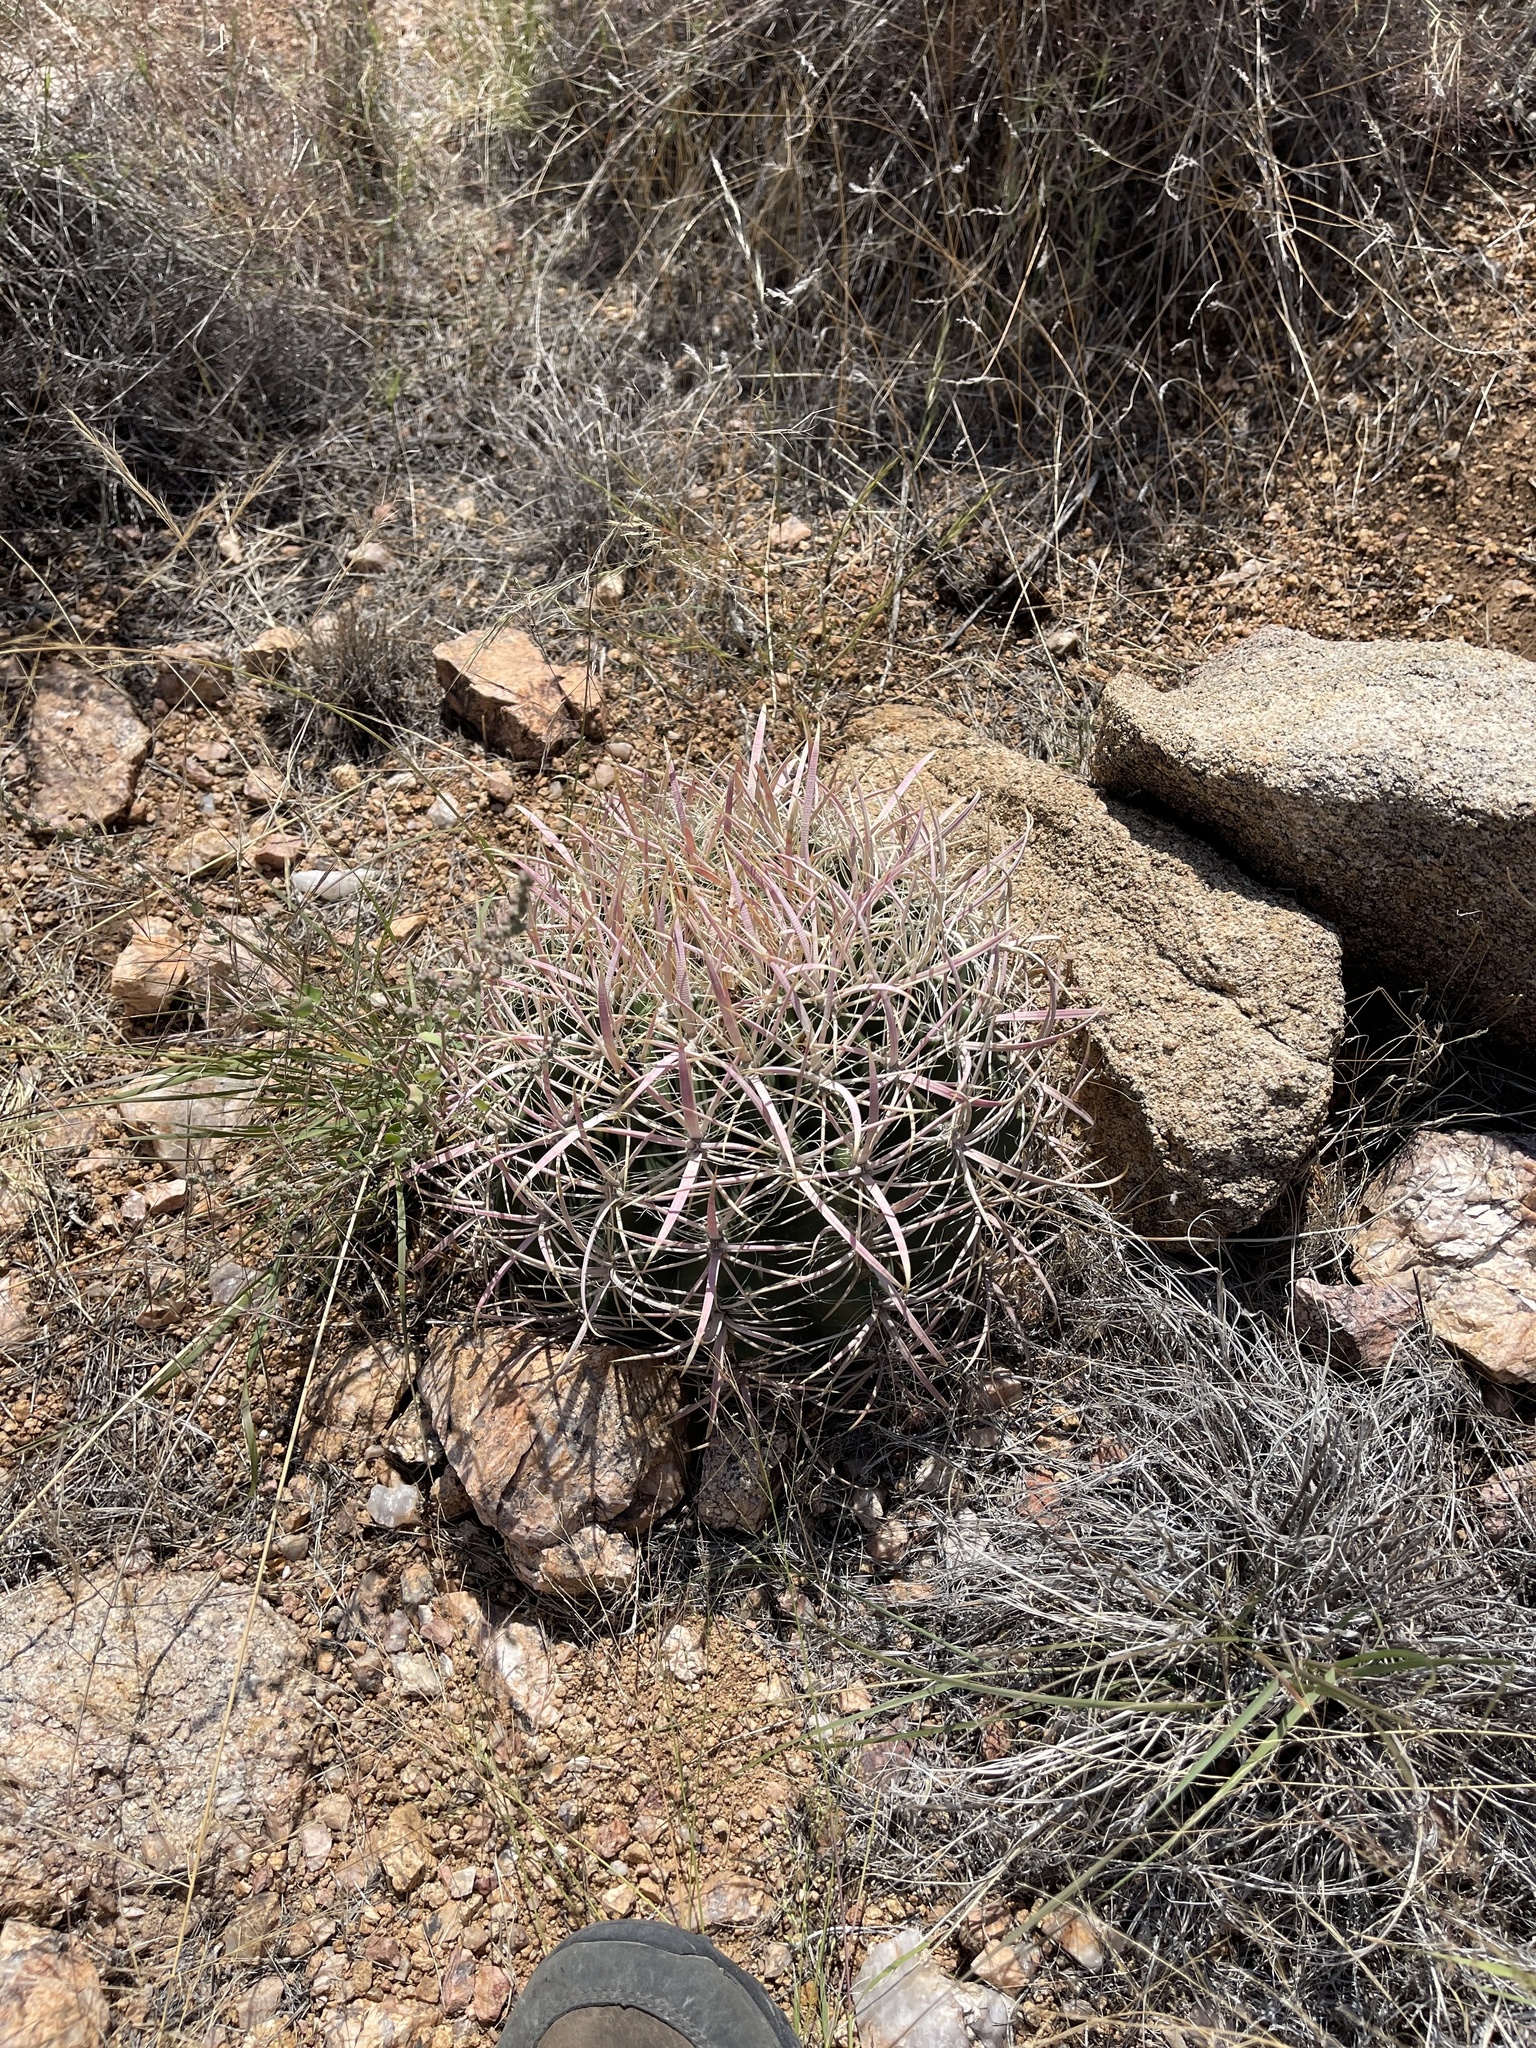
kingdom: Plantae
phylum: Tracheophyta
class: Magnoliopsida
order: Caryophyllales
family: Cactaceae
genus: Ferocactus
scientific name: Ferocactus cylindraceus
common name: California barrel cactus
